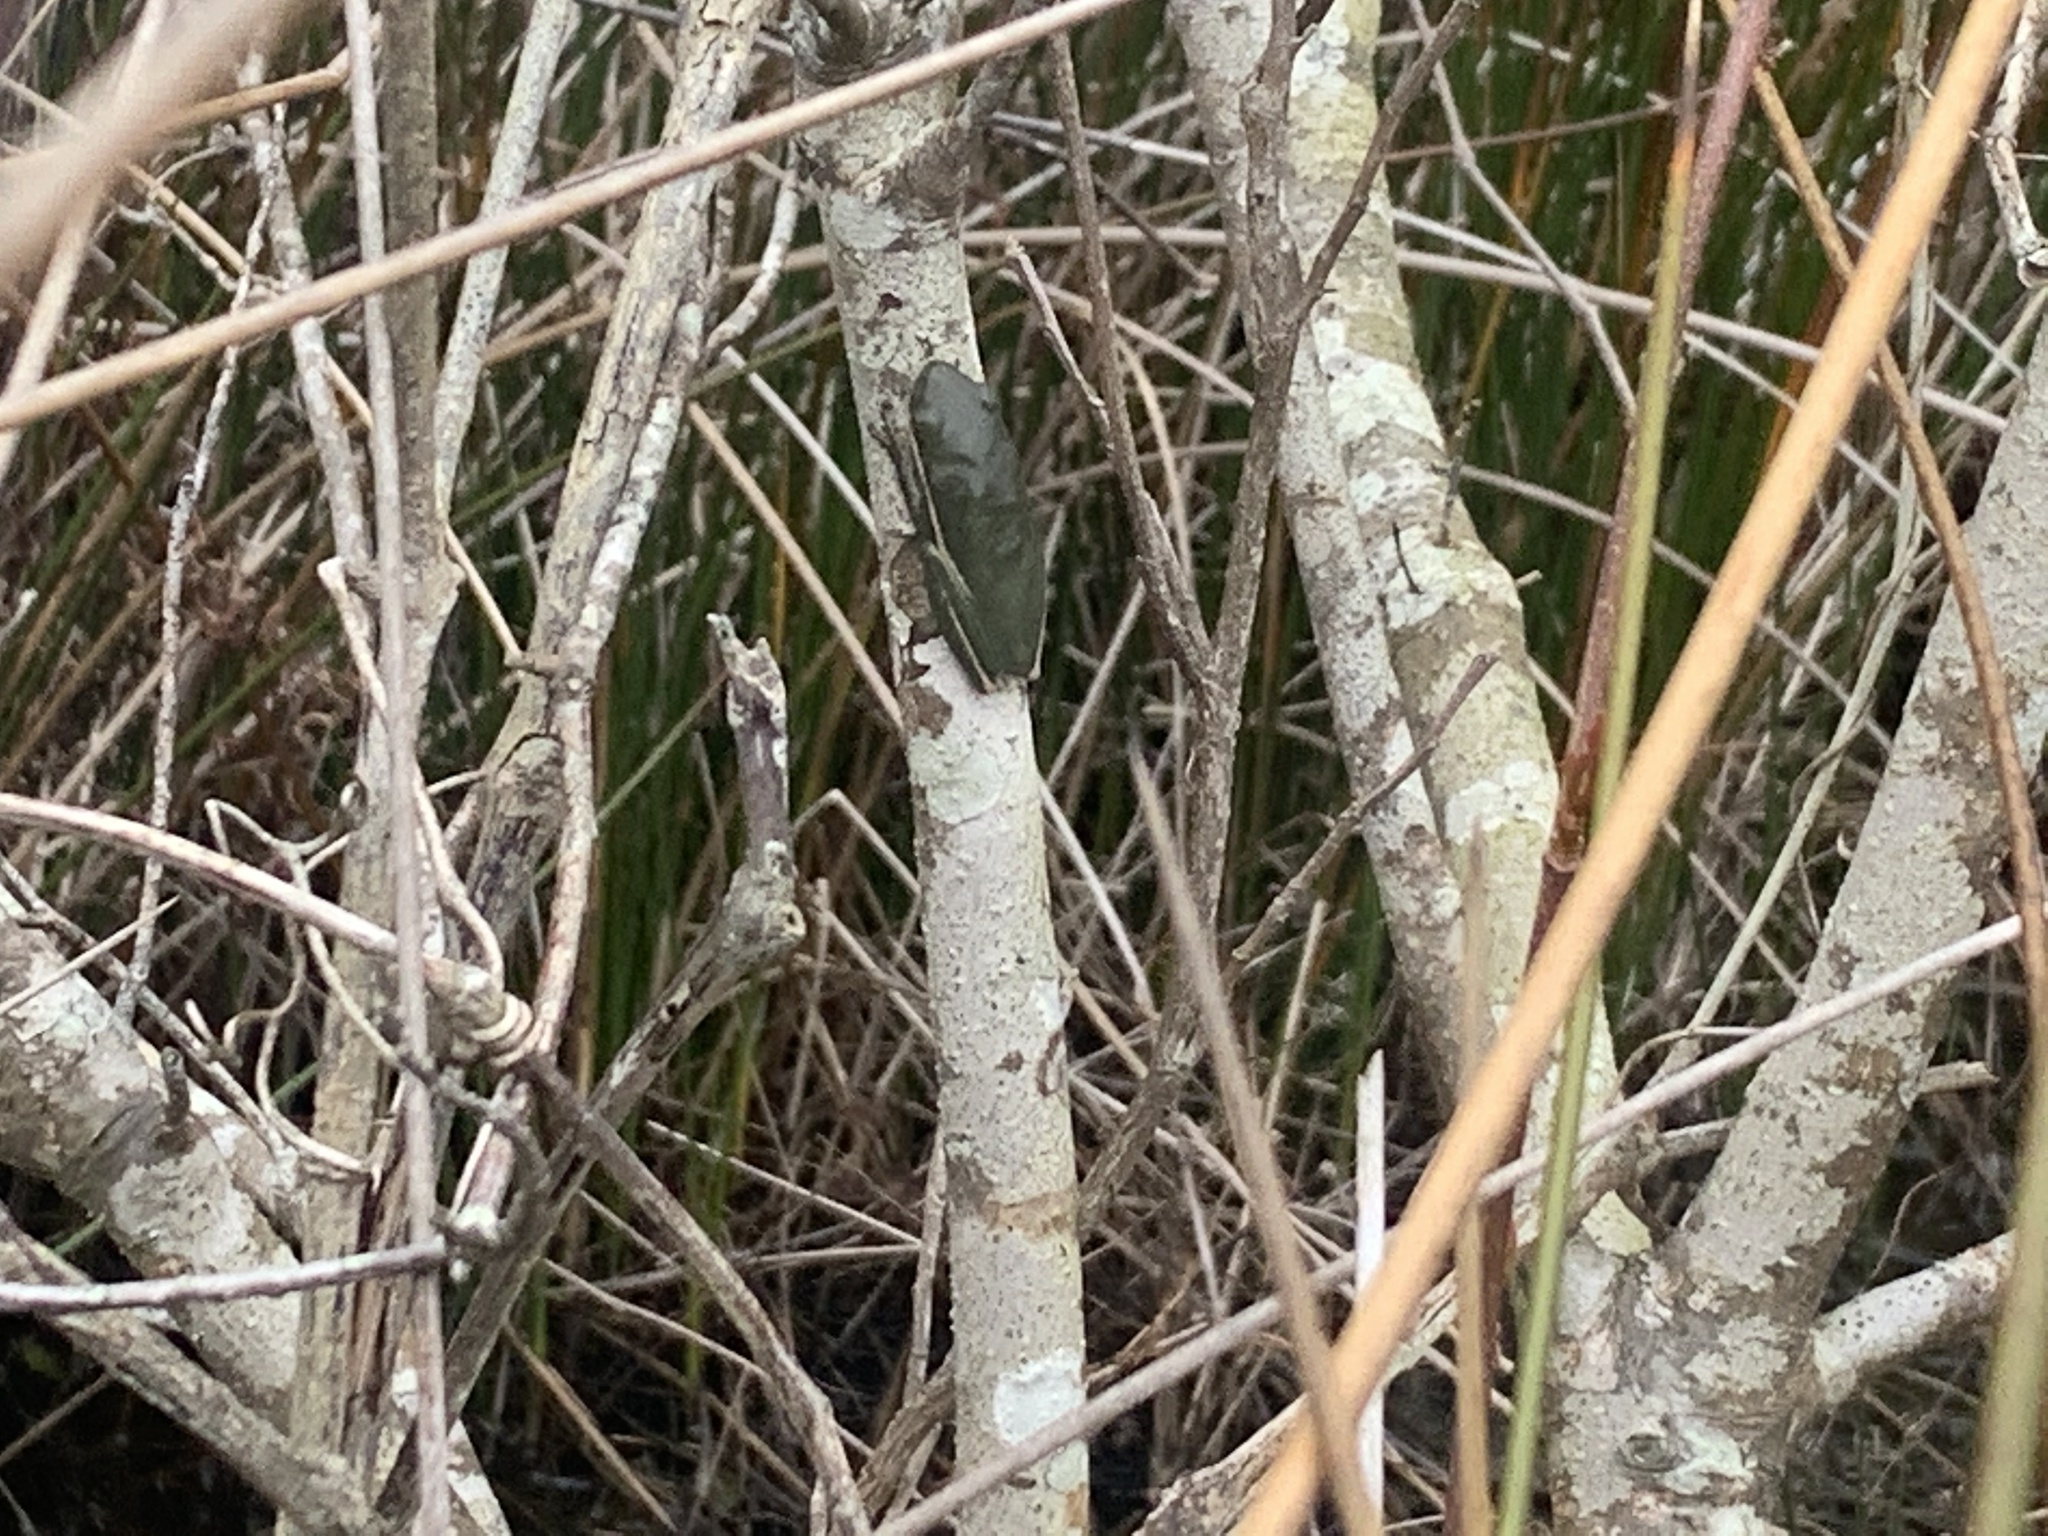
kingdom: Animalia
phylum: Chordata
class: Amphibia
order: Anura
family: Hylidae
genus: Dryophytes
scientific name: Dryophytes cinereus
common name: Green treefrog
